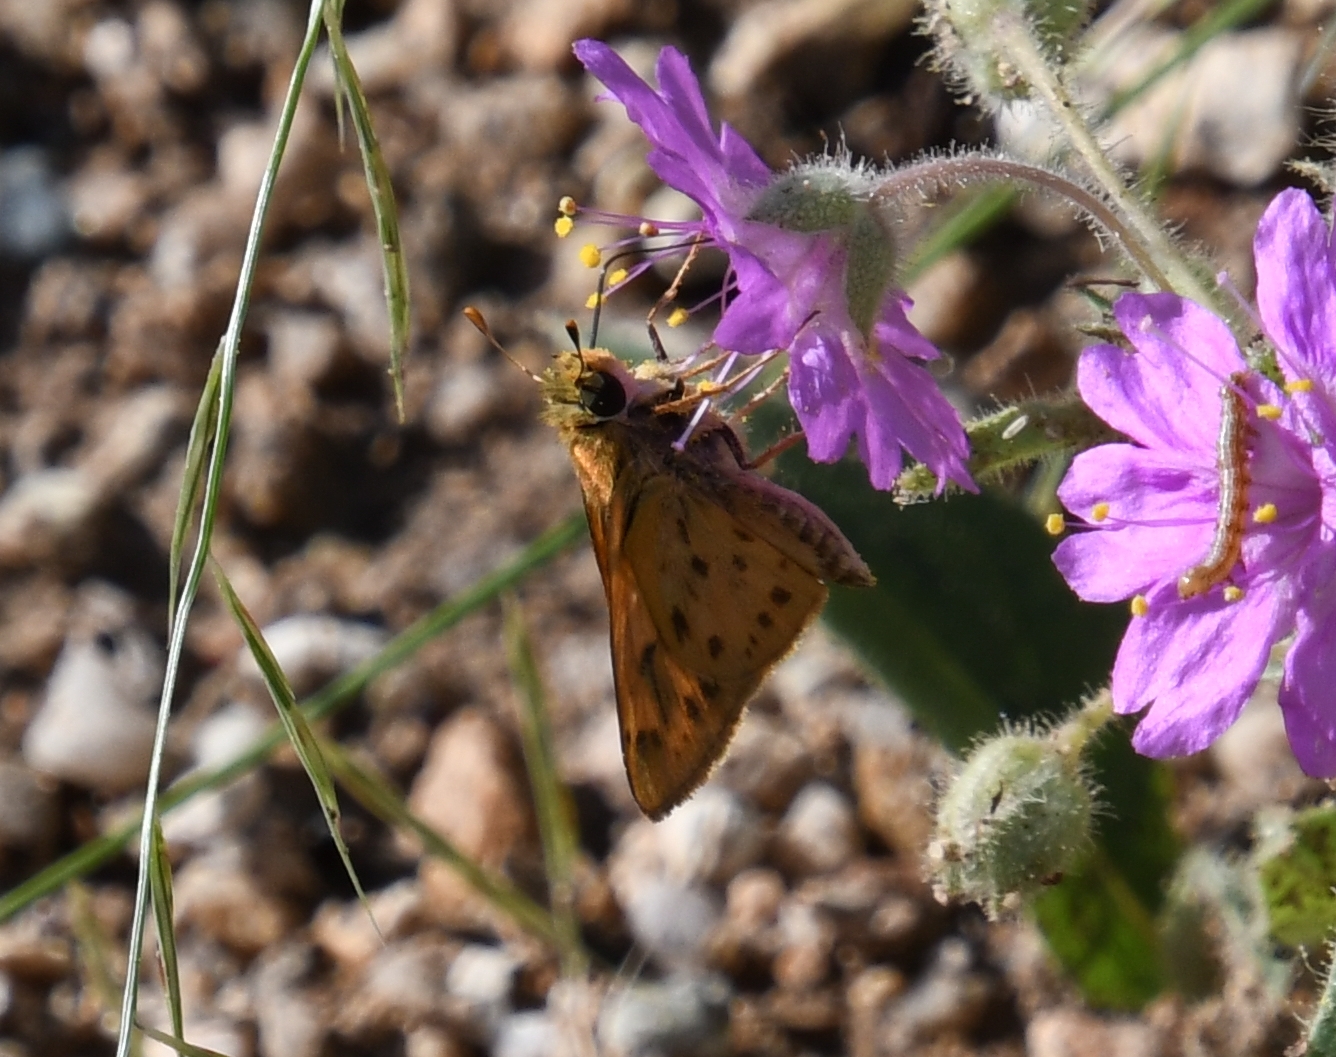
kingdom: Animalia
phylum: Arthropoda
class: Insecta
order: Lepidoptera
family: Hesperiidae
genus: Hylephila
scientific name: Hylephila phyleus
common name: Fiery skipper
